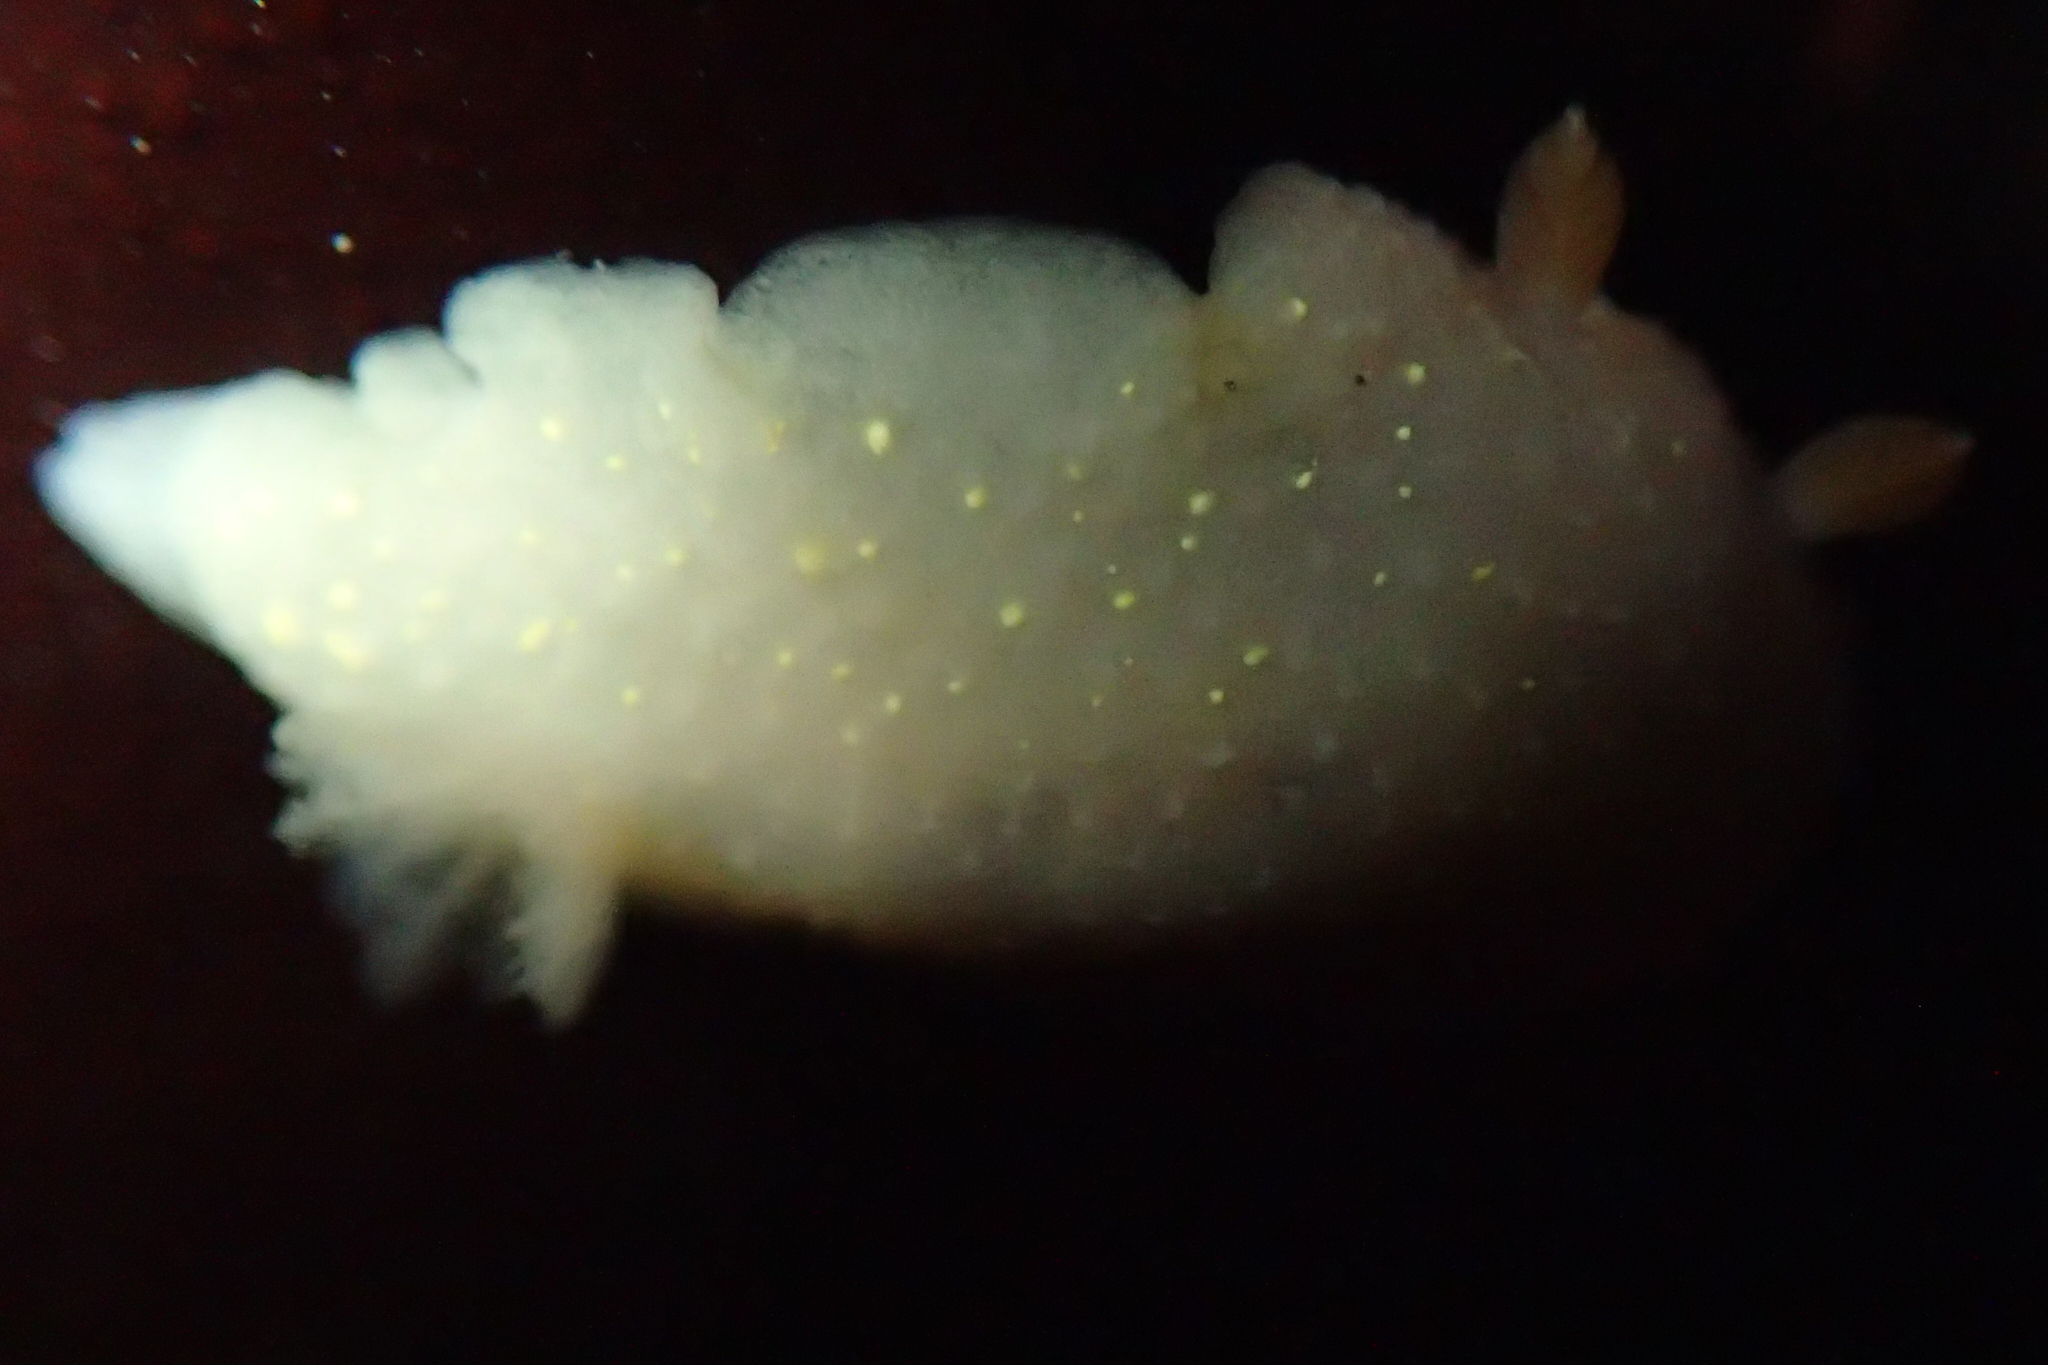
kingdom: Animalia
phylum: Mollusca
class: Gastropoda
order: Nudibranchia
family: Cadlinidae
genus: Cadlina
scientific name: Cadlina modesta
